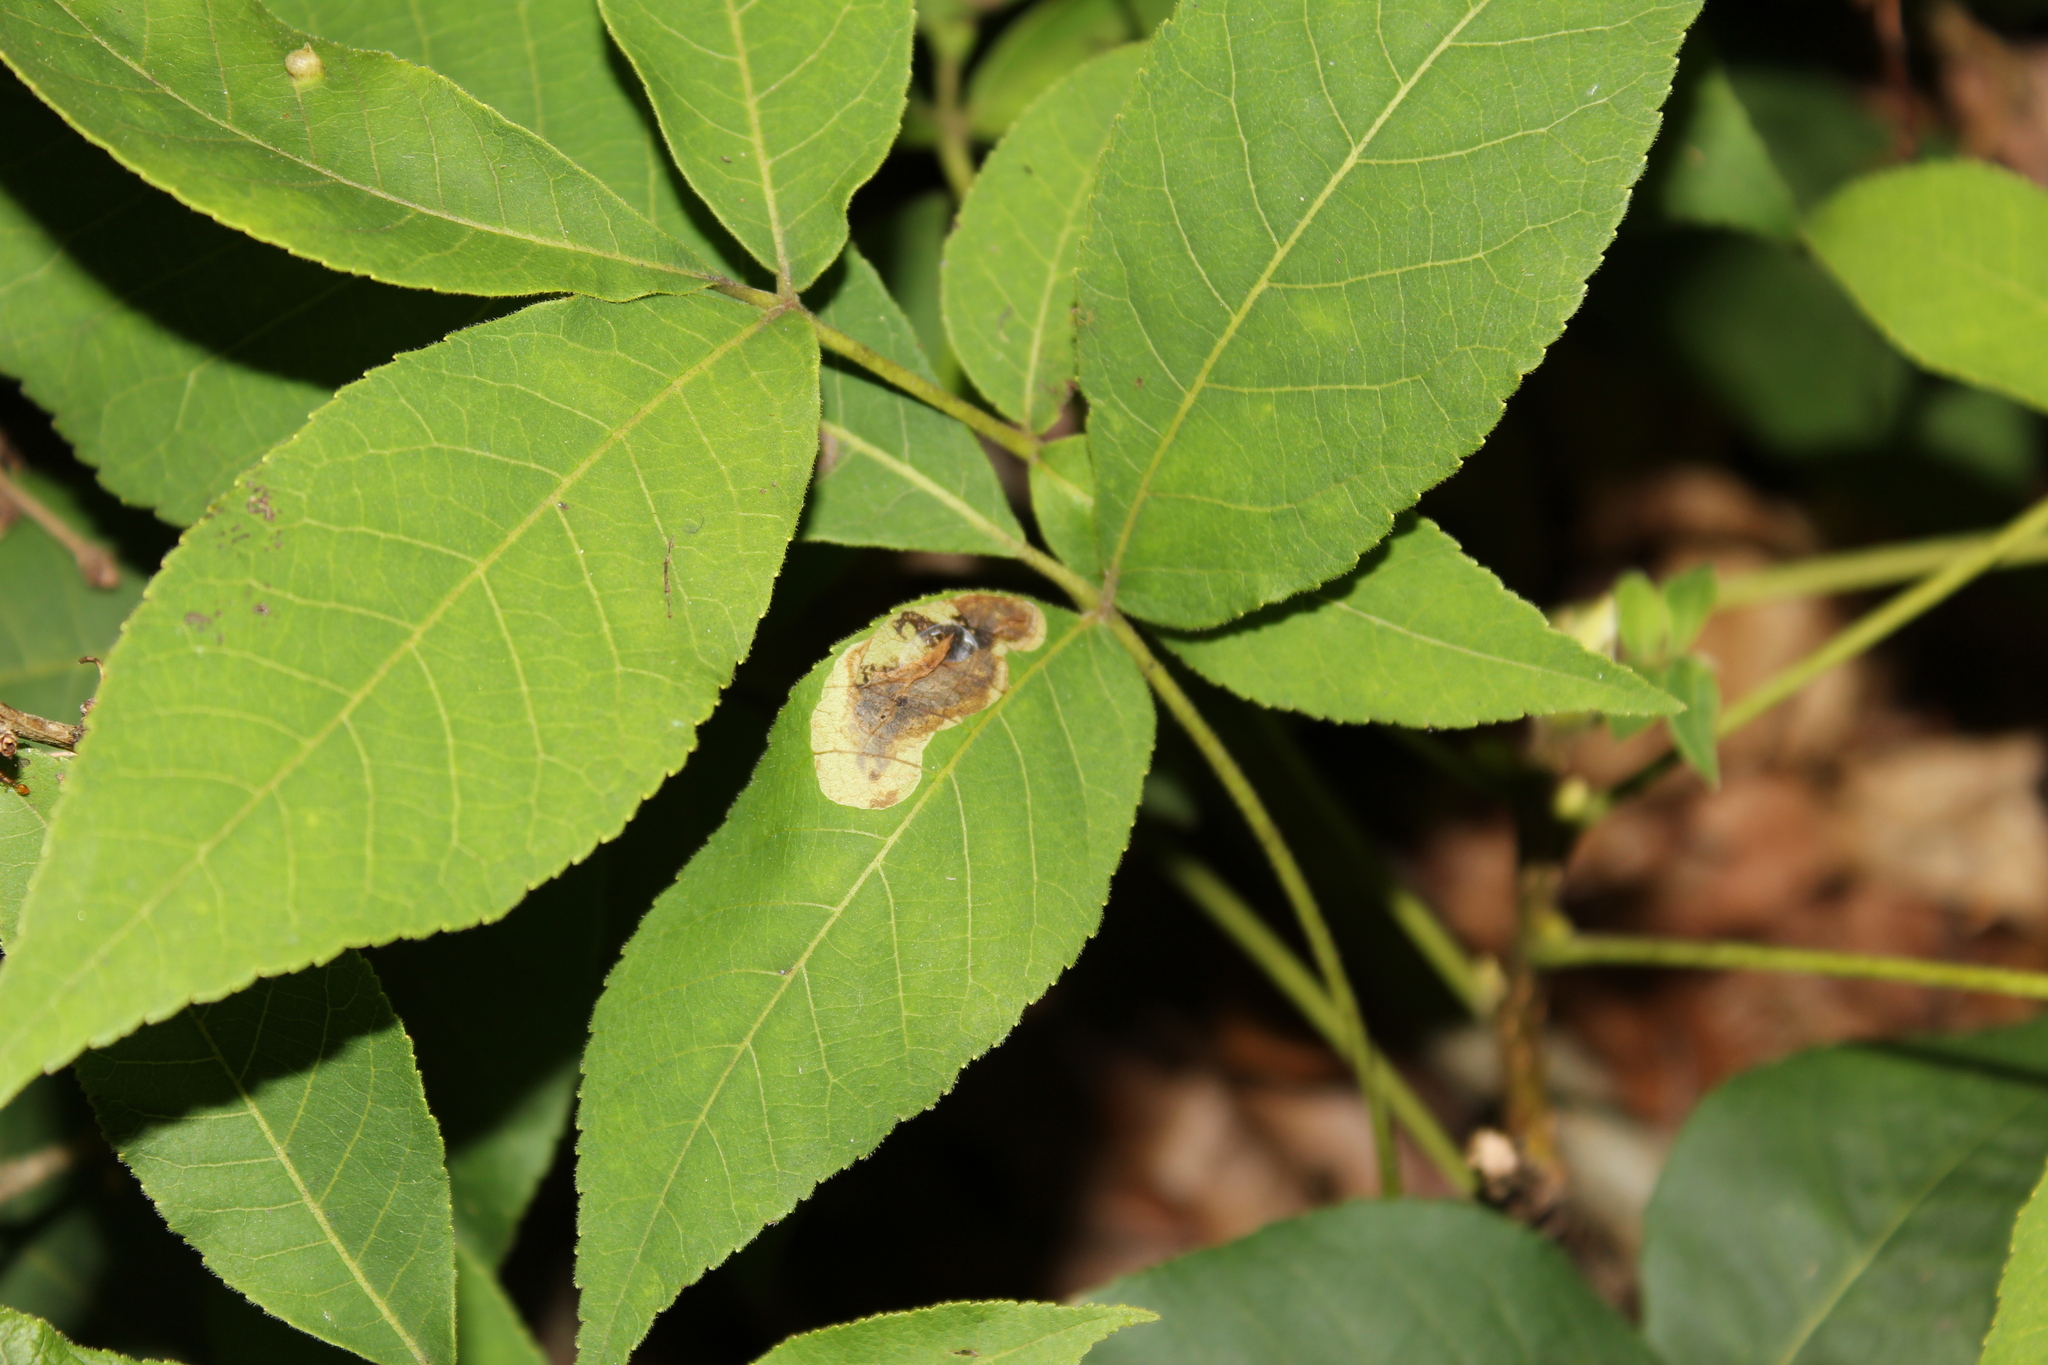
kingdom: Animalia
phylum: Arthropoda
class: Insecta
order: Lepidoptera
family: Gracillariidae
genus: Cameraria
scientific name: Cameraria caryaefoliella
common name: Pecan leafminer moth
